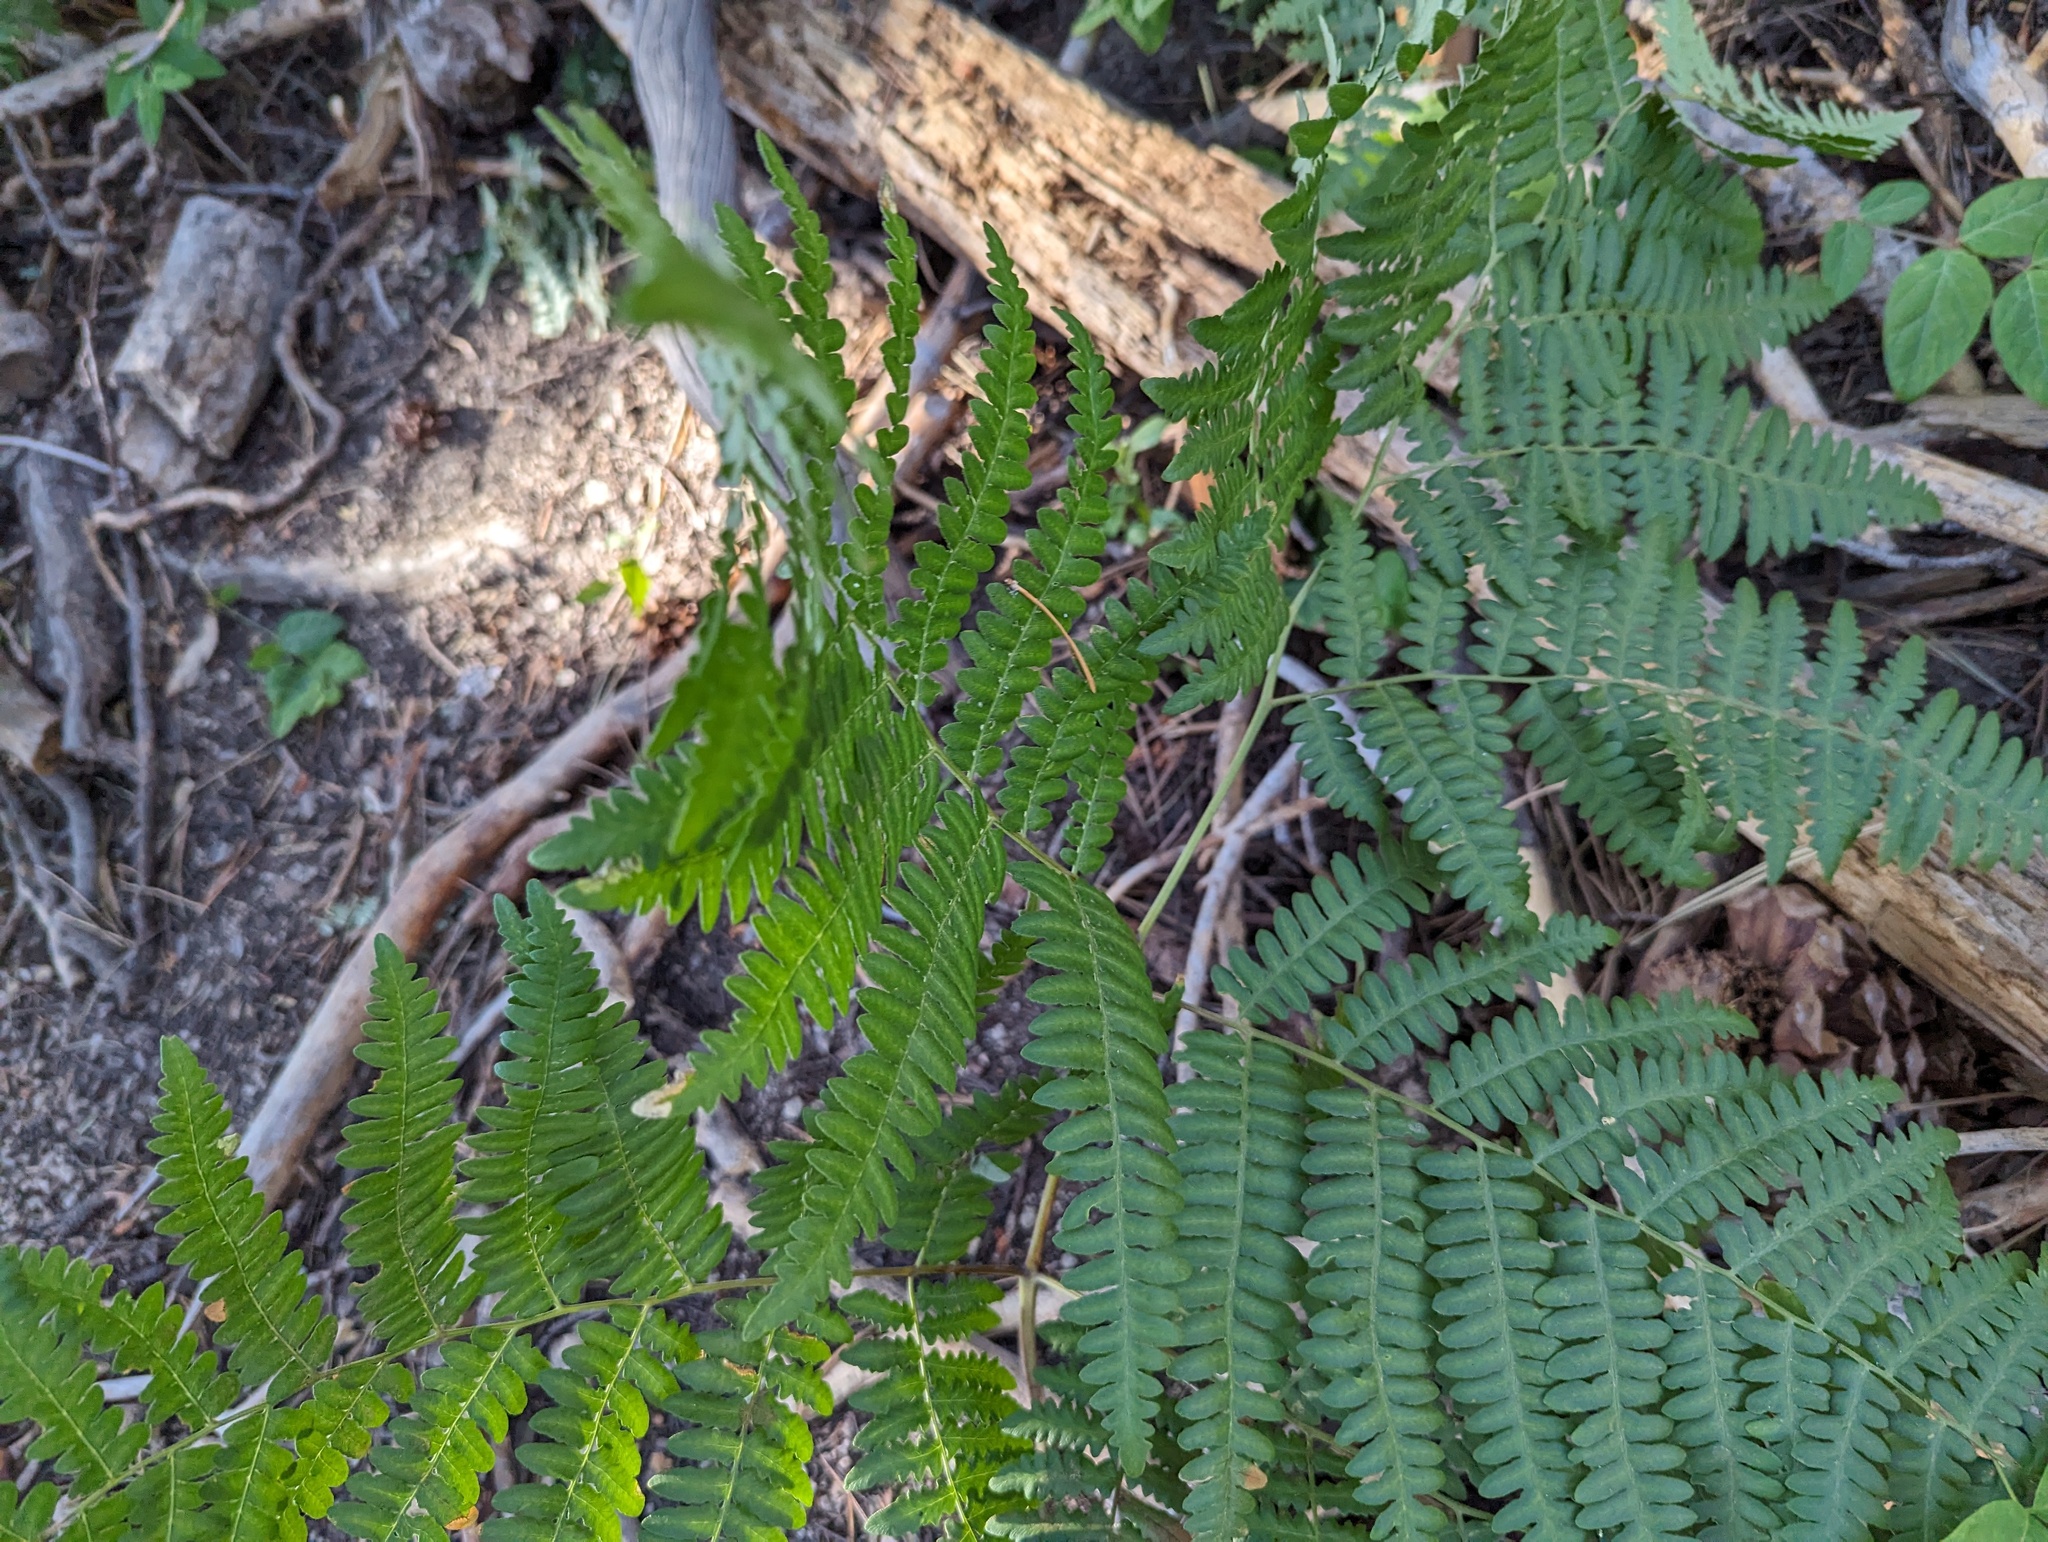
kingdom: Plantae
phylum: Tracheophyta
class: Polypodiopsida
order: Polypodiales
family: Dennstaedtiaceae
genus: Pteridium
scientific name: Pteridium aquilinum
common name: Bracken
